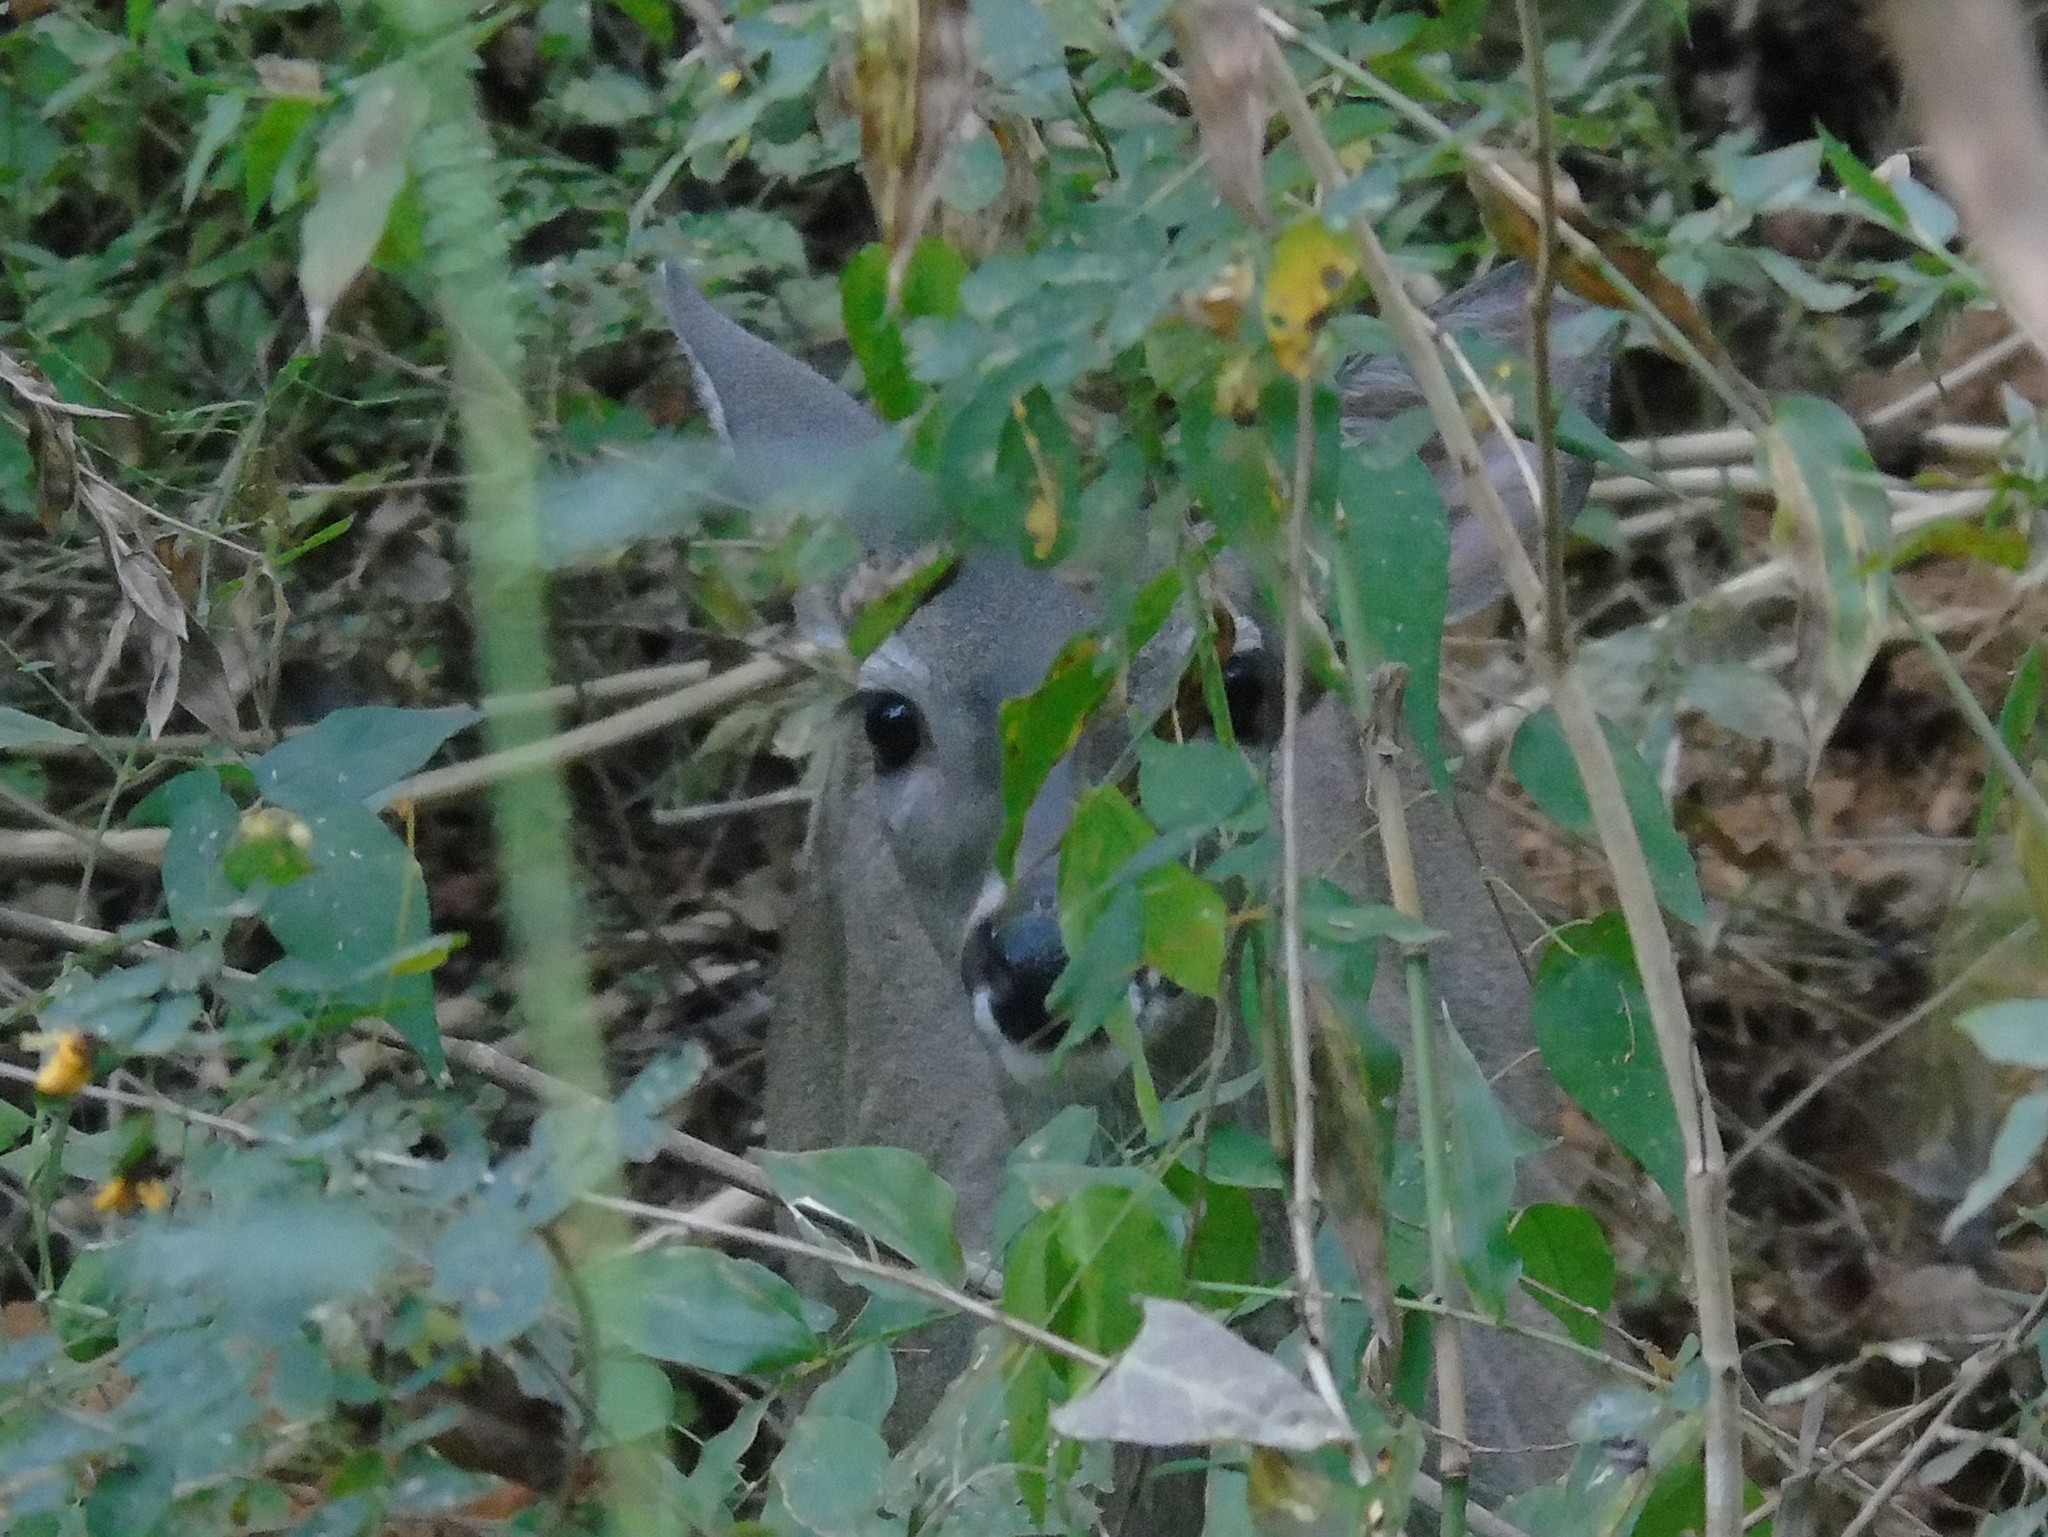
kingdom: Animalia
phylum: Chordata
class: Mammalia
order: Artiodactyla
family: Cervidae
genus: Odocoileus
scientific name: Odocoileus virginianus
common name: White-tailed deer
